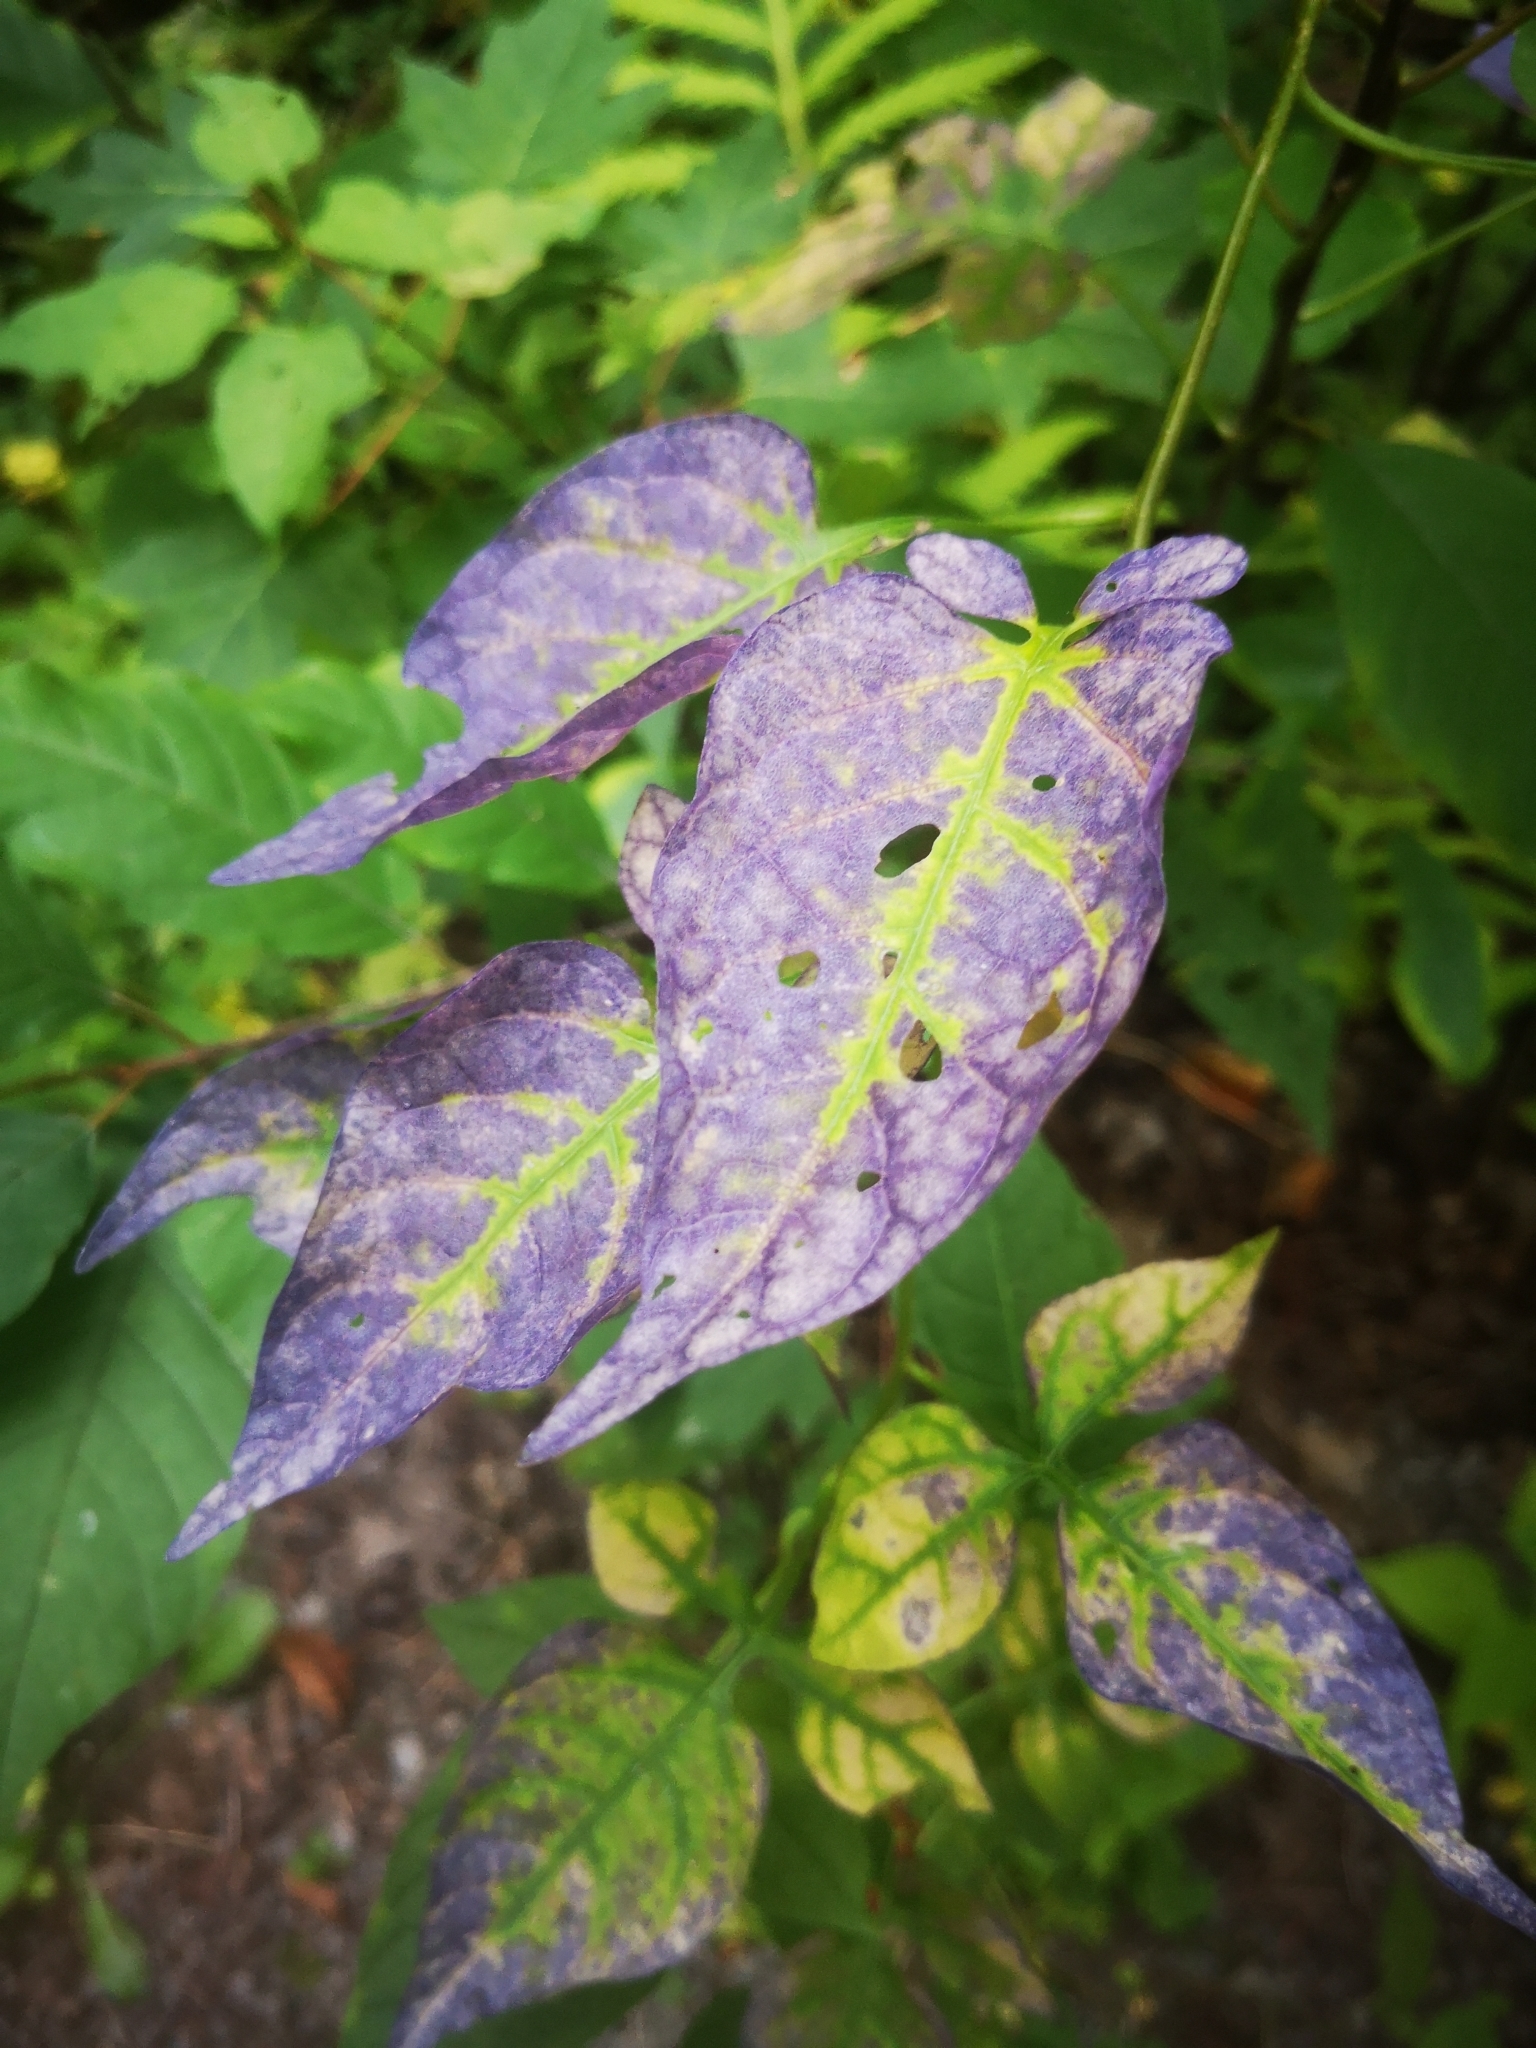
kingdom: Plantae
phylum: Tracheophyta
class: Magnoliopsida
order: Solanales
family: Solanaceae
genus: Solanum
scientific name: Solanum dulcamara
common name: Climbing nightshade
